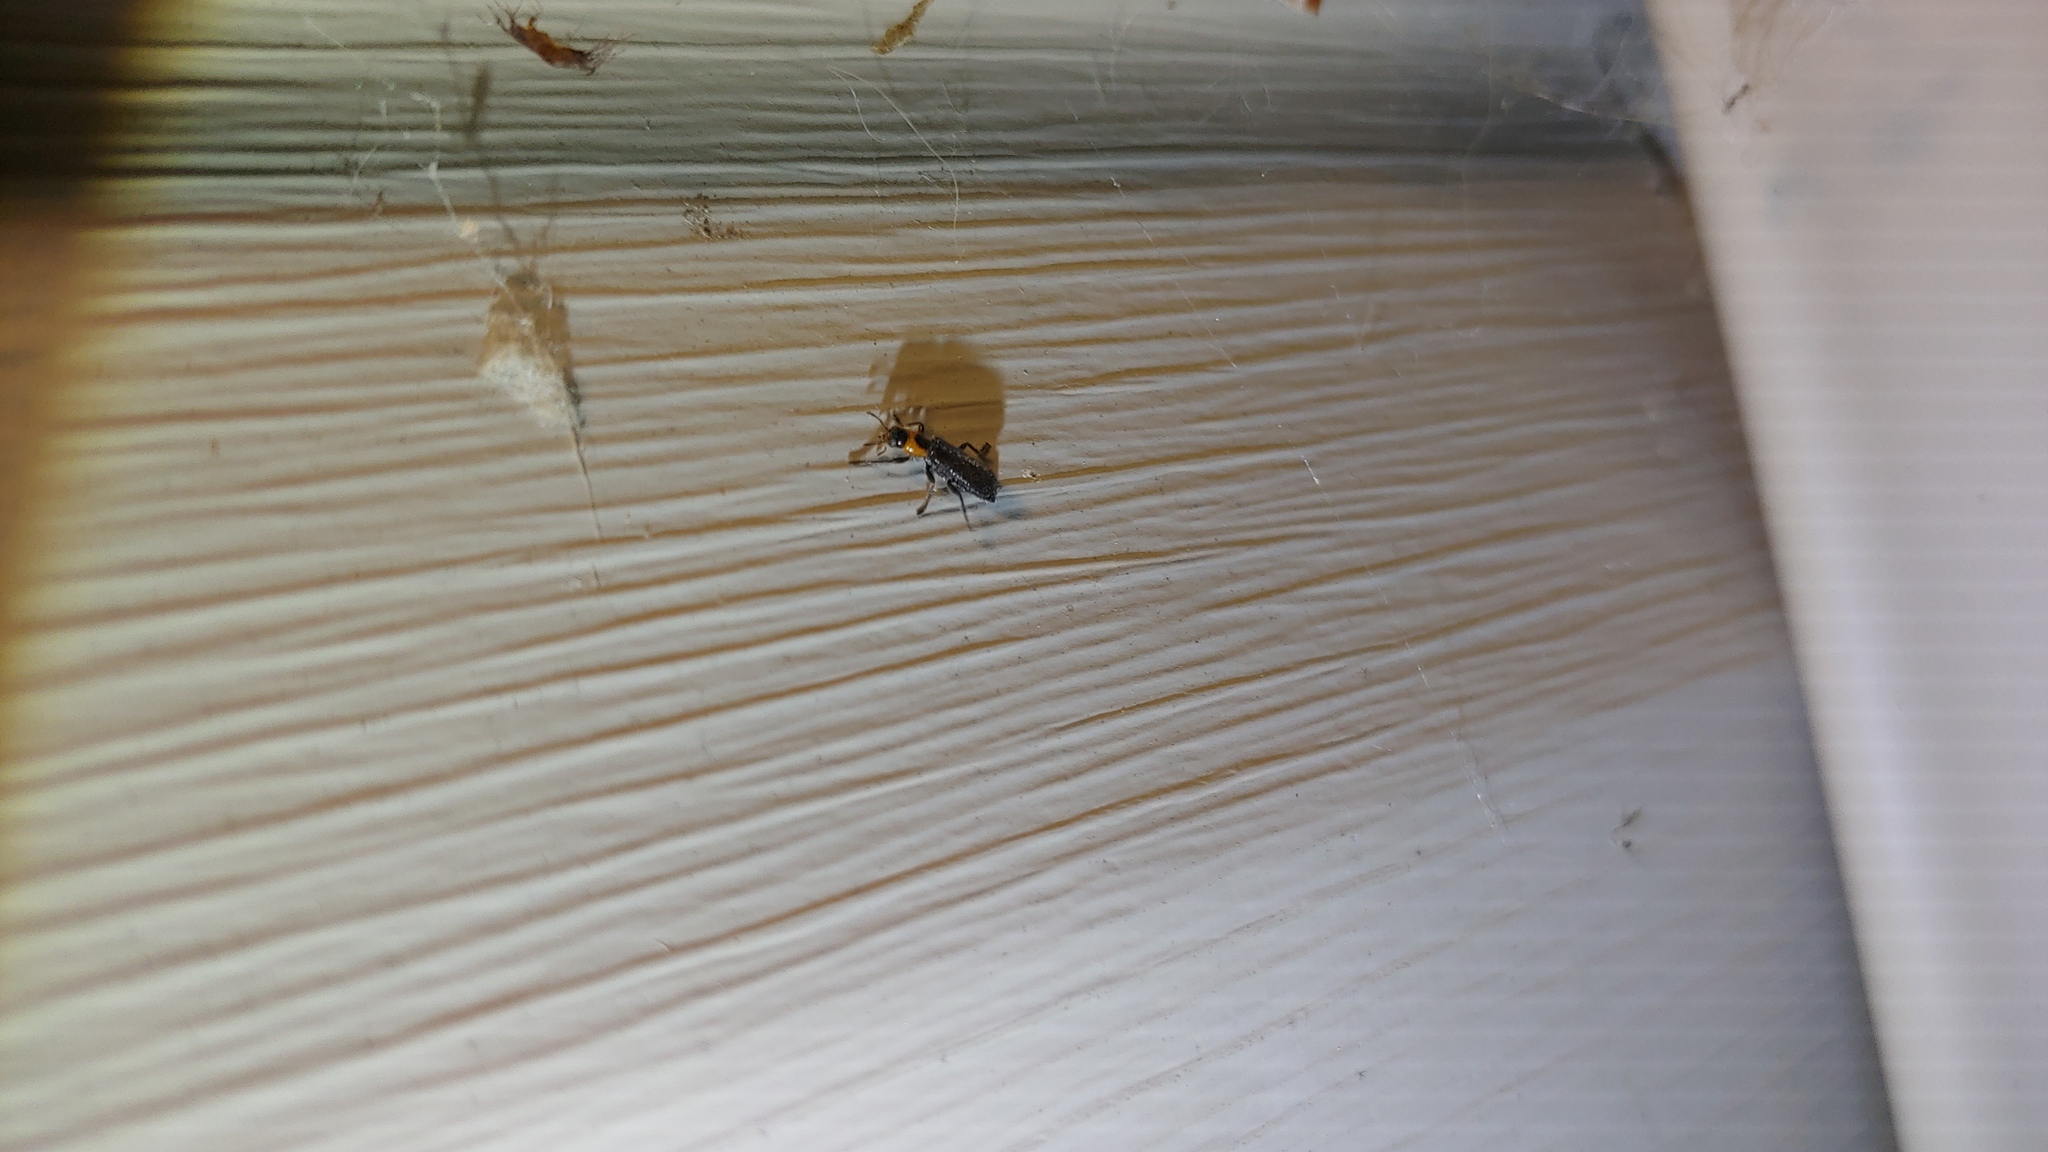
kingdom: Animalia
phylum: Arthropoda
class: Insecta
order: Coleoptera
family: Cleridae
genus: Placopterus
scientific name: Placopterus thoracicus
